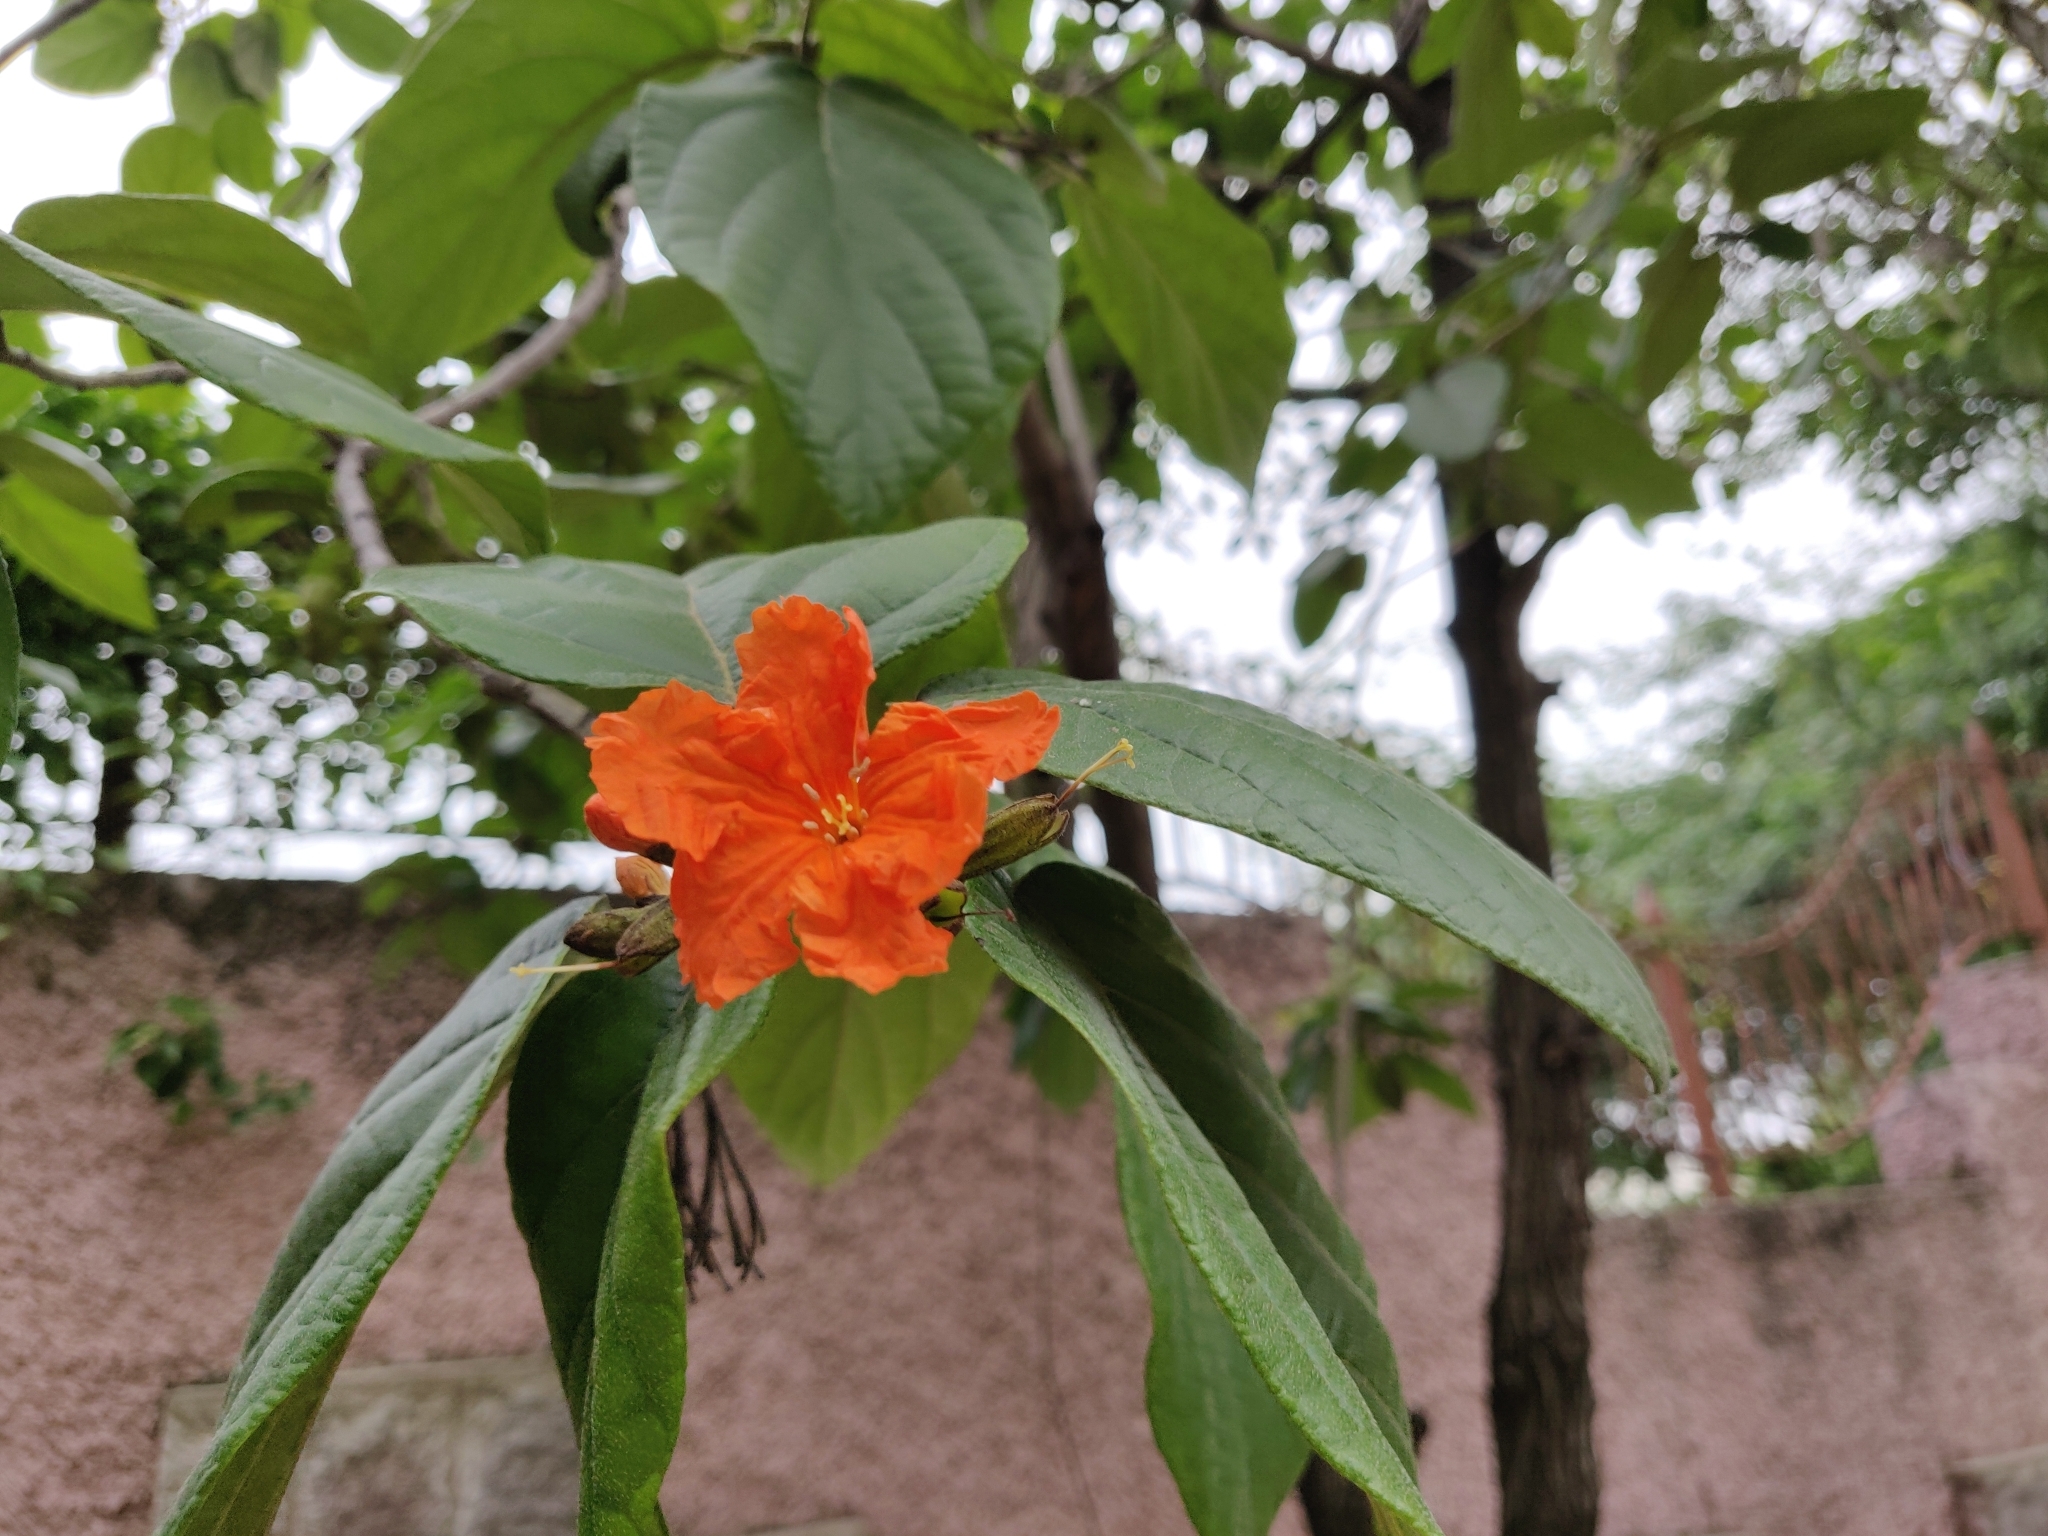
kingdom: Plantae
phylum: Tracheophyta
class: Magnoliopsida
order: Boraginales
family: Cordiaceae
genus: Cordia
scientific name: Cordia sebestena
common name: Largeleaf geigertree
